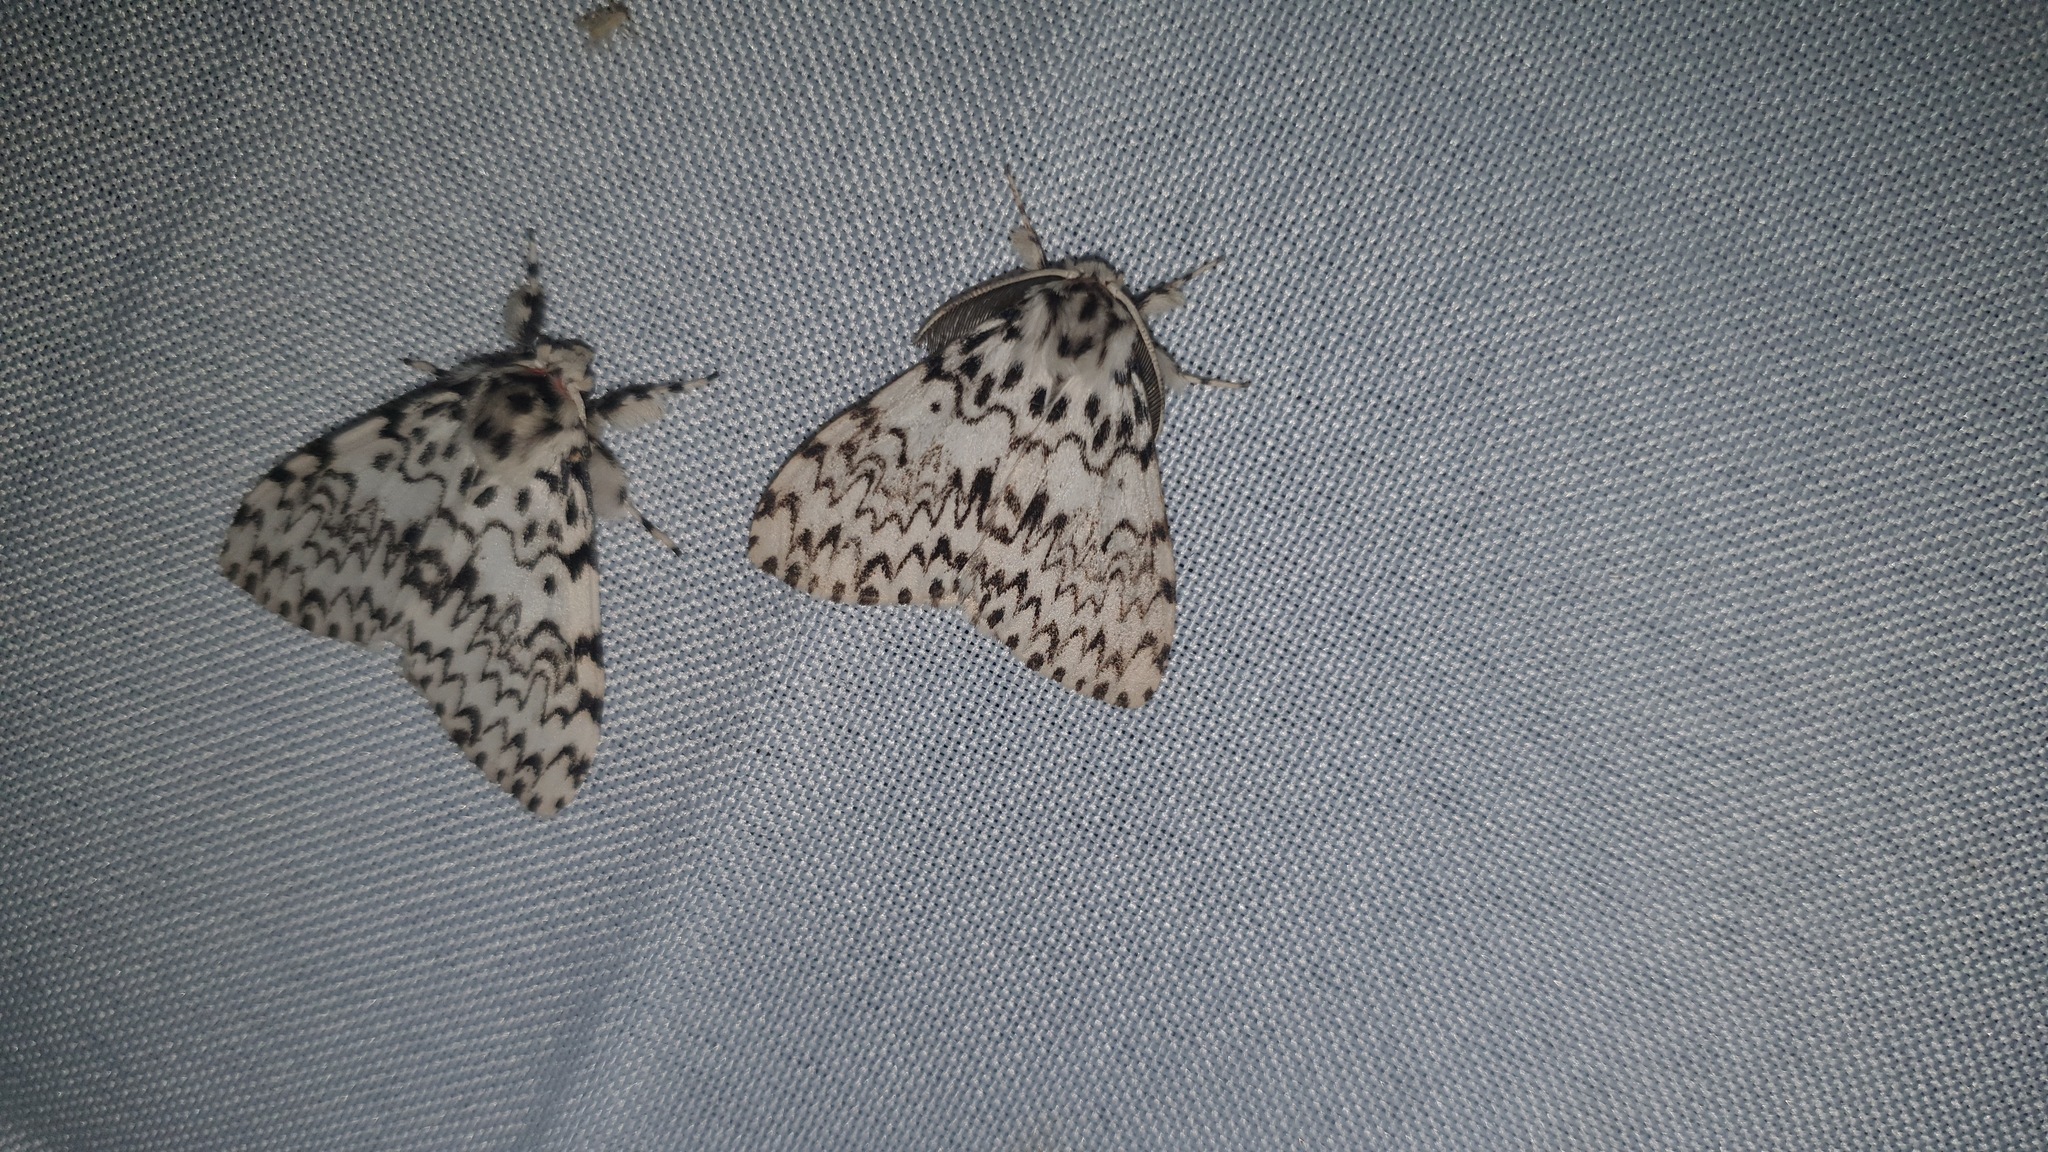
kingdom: Animalia
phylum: Arthropoda
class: Insecta
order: Lepidoptera
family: Erebidae
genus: Lymantria
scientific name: Lymantria monacha
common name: Black arches
